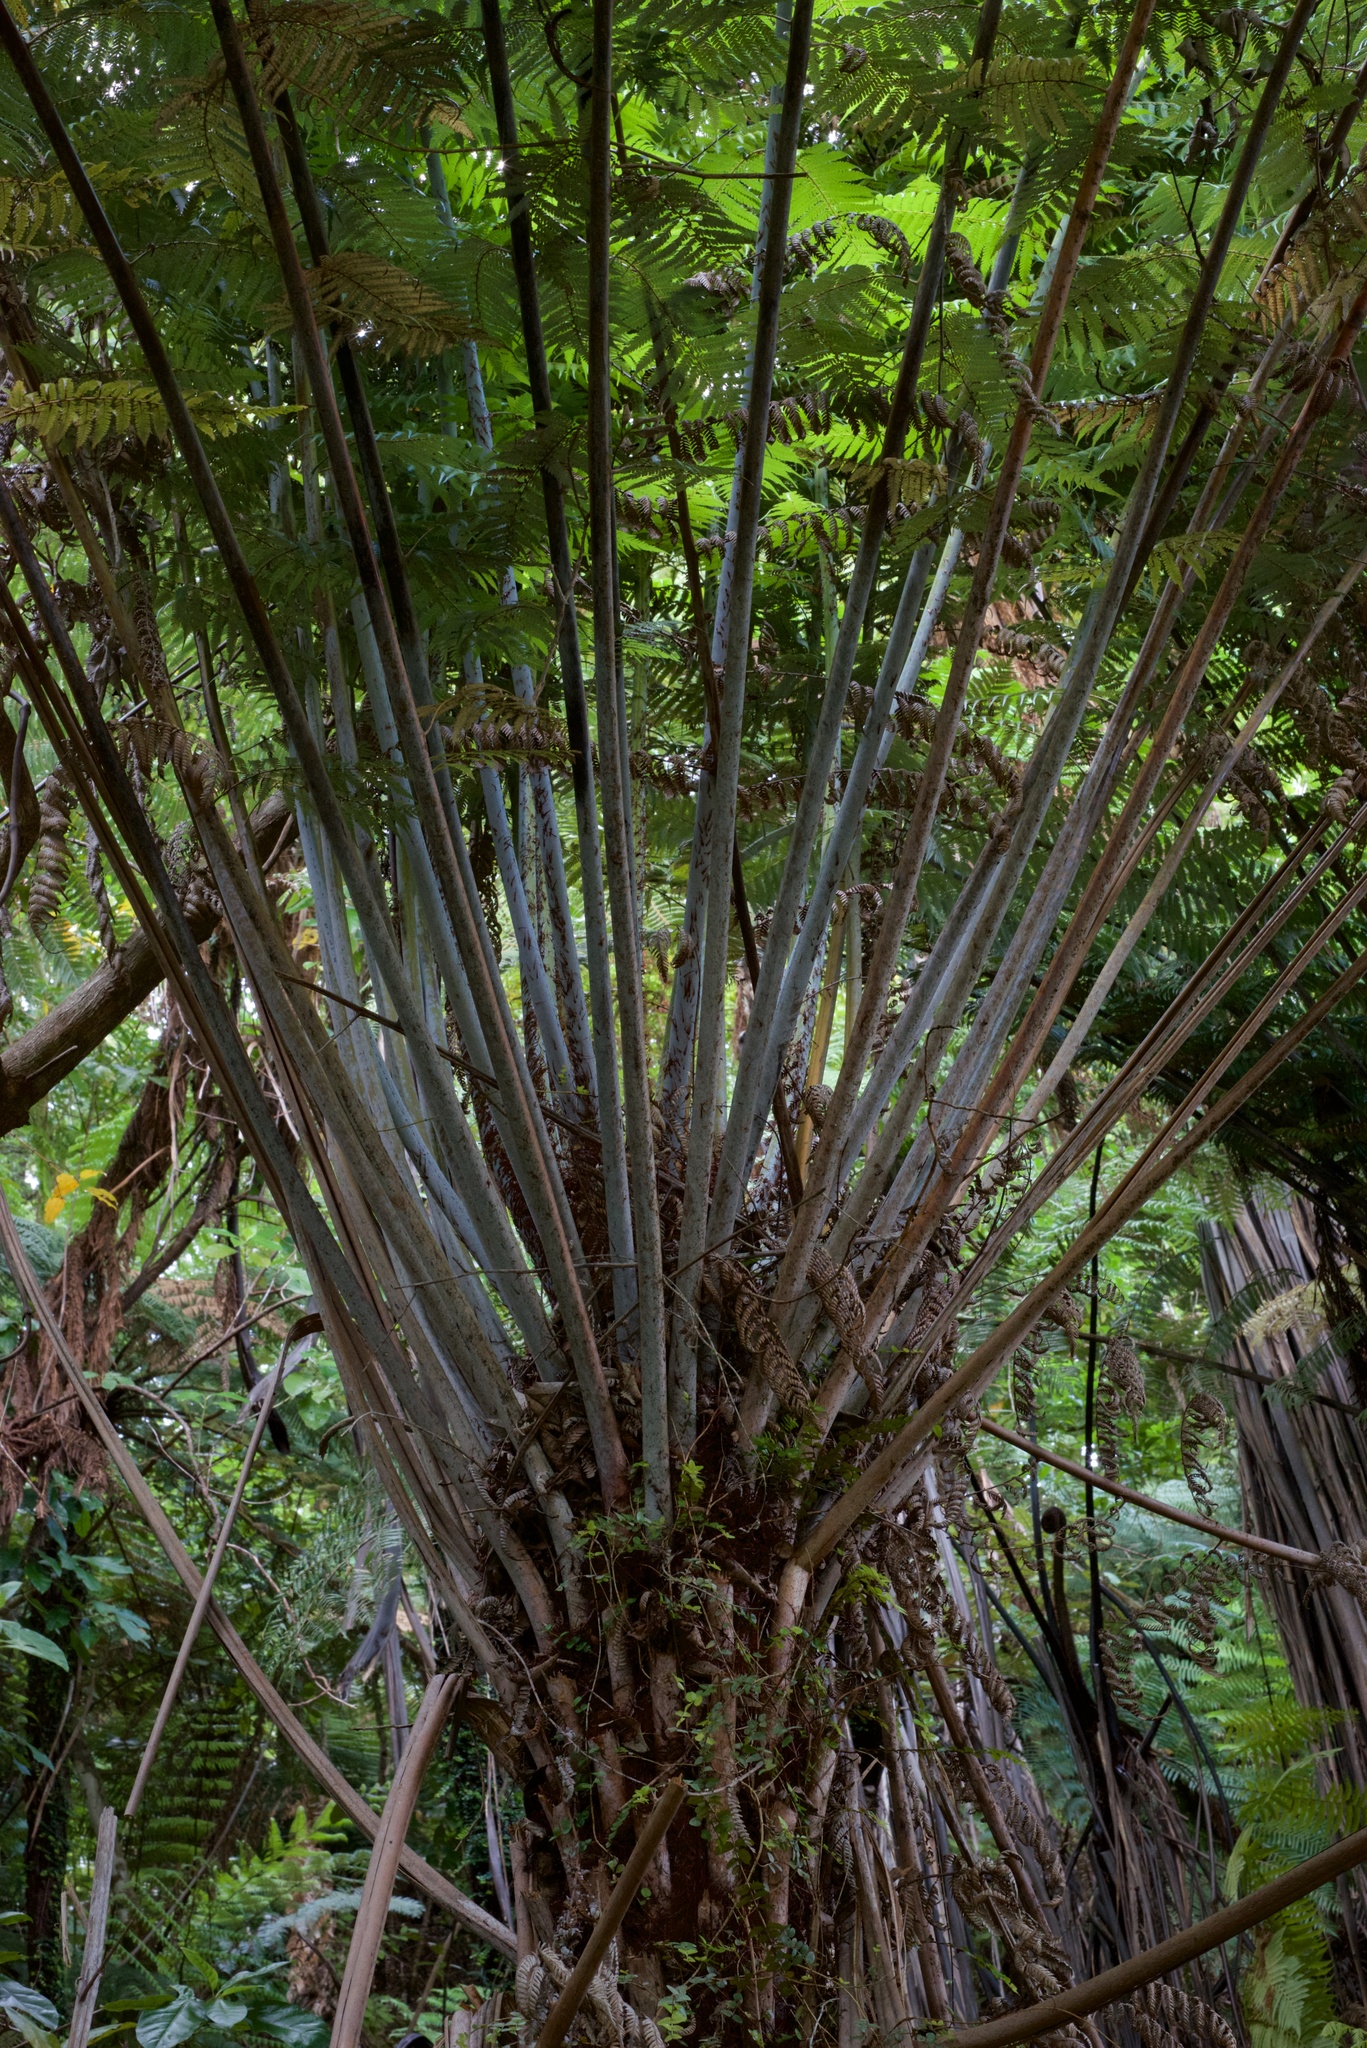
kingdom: Plantae
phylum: Tracheophyta
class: Polypodiopsida
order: Cyatheales
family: Cyatheaceae
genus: Alsophila
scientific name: Alsophila dealbata
